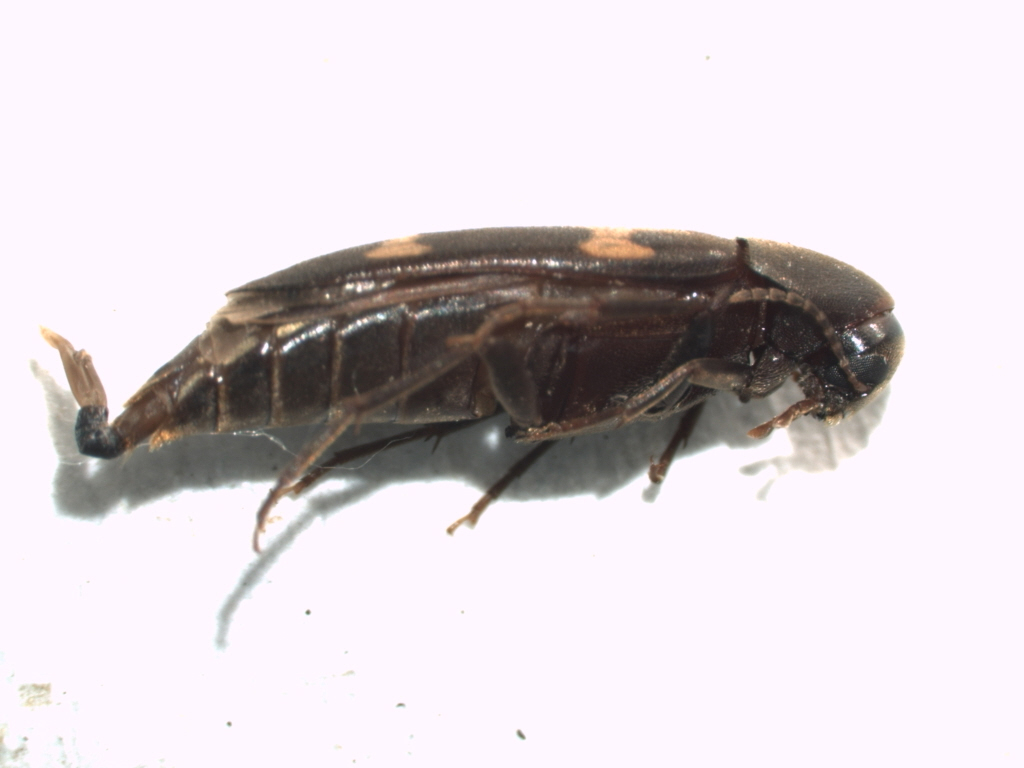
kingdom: Animalia
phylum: Arthropoda
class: Insecta
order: Coleoptera
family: Melandryidae
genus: Dircaea
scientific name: Dircaea liturata
